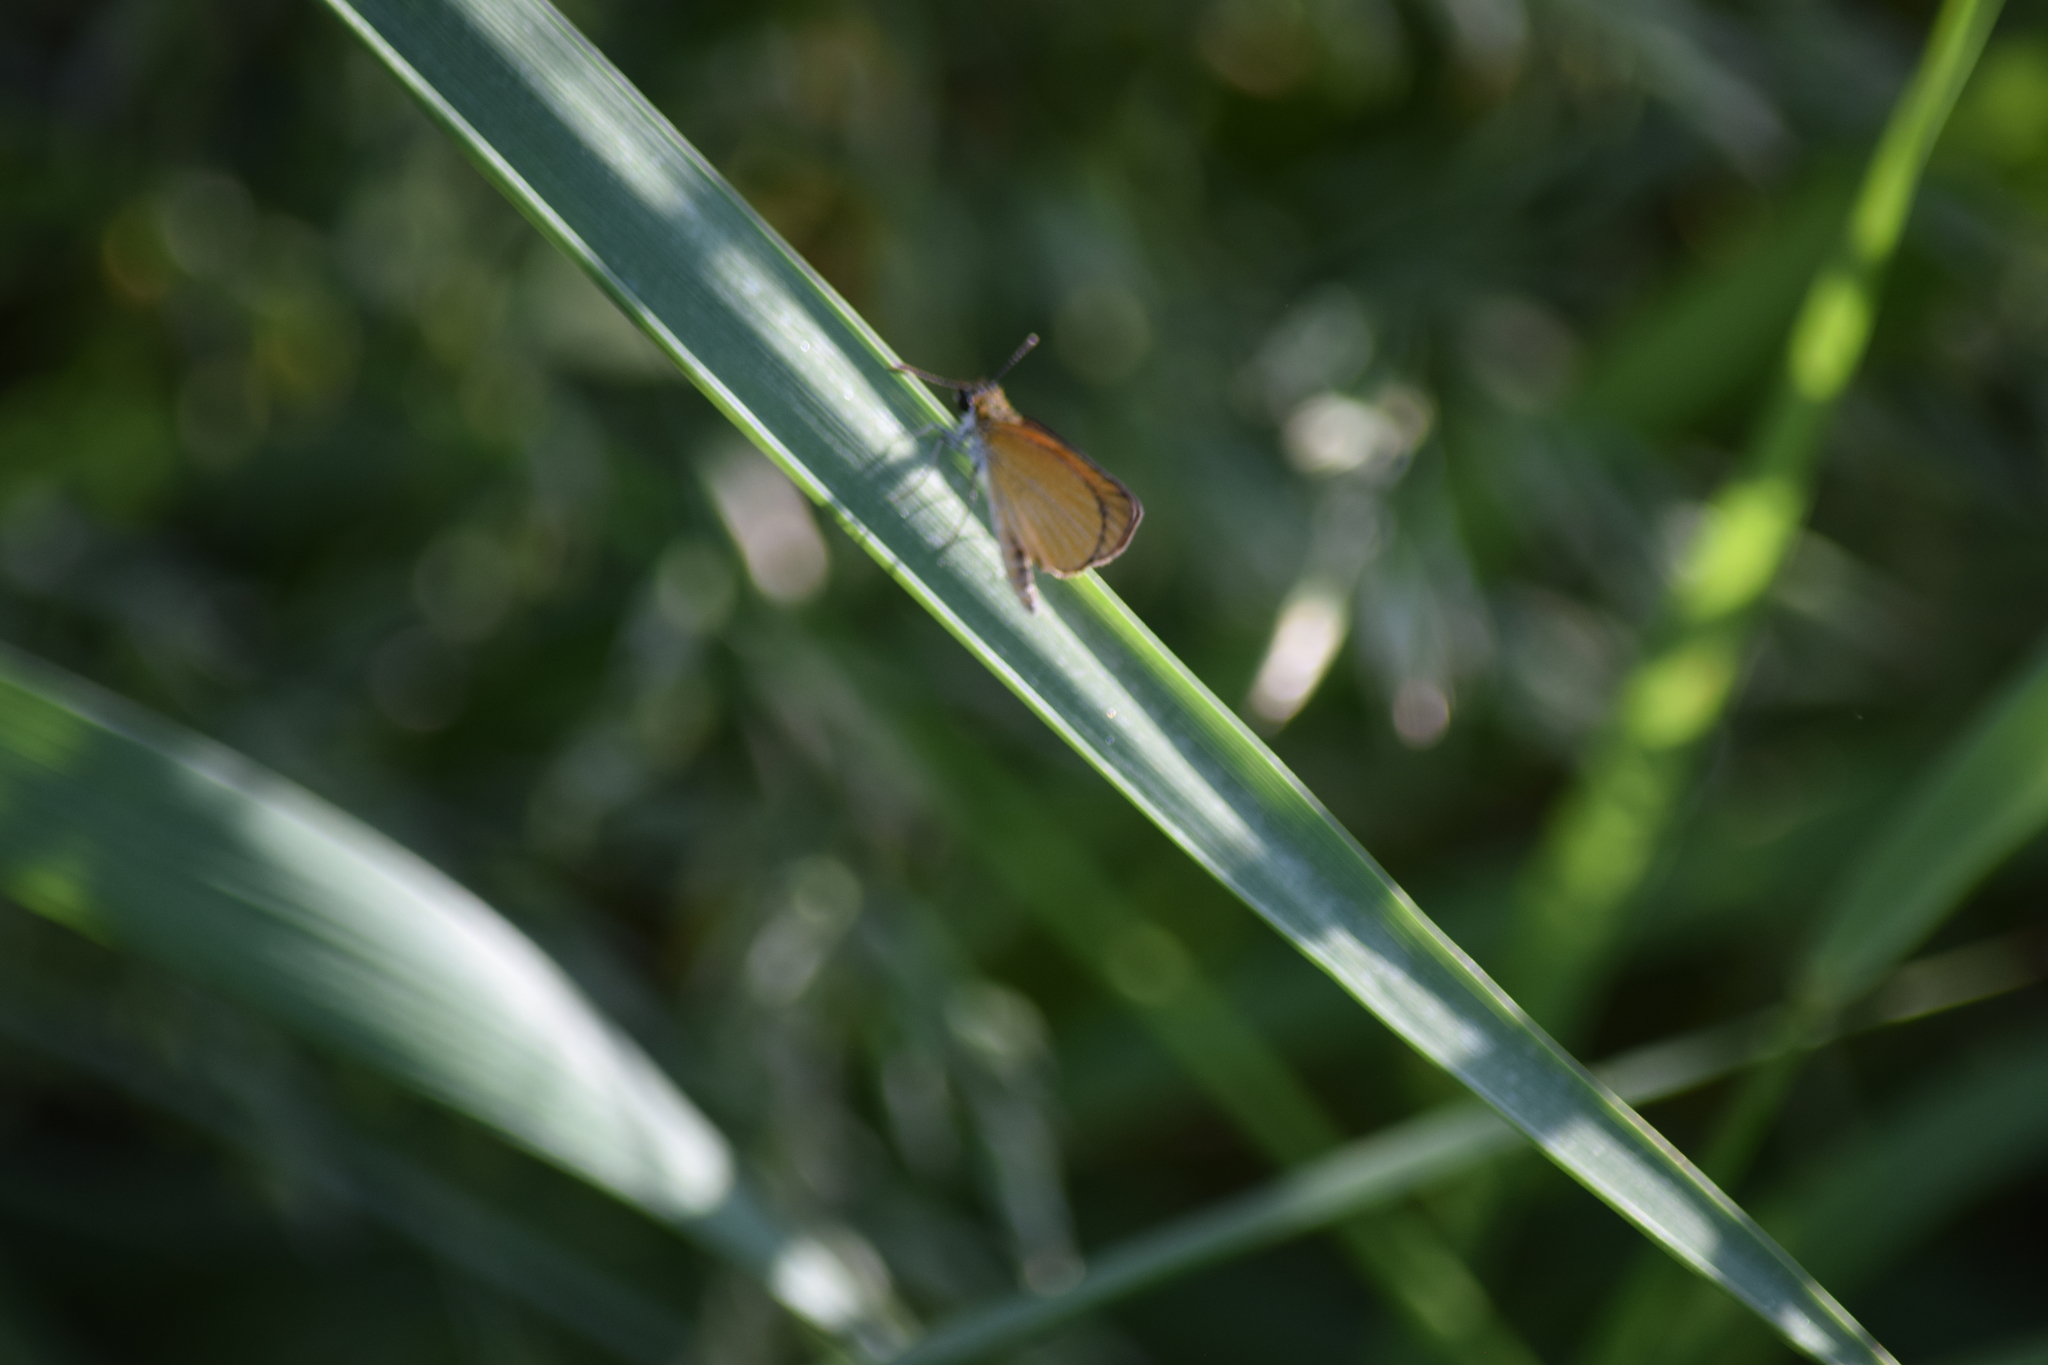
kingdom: Animalia
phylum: Arthropoda
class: Insecta
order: Lepidoptera
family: Hesperiidae
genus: Ancyloxypha
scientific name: Ancyloxypha numitor
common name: Least skipper
